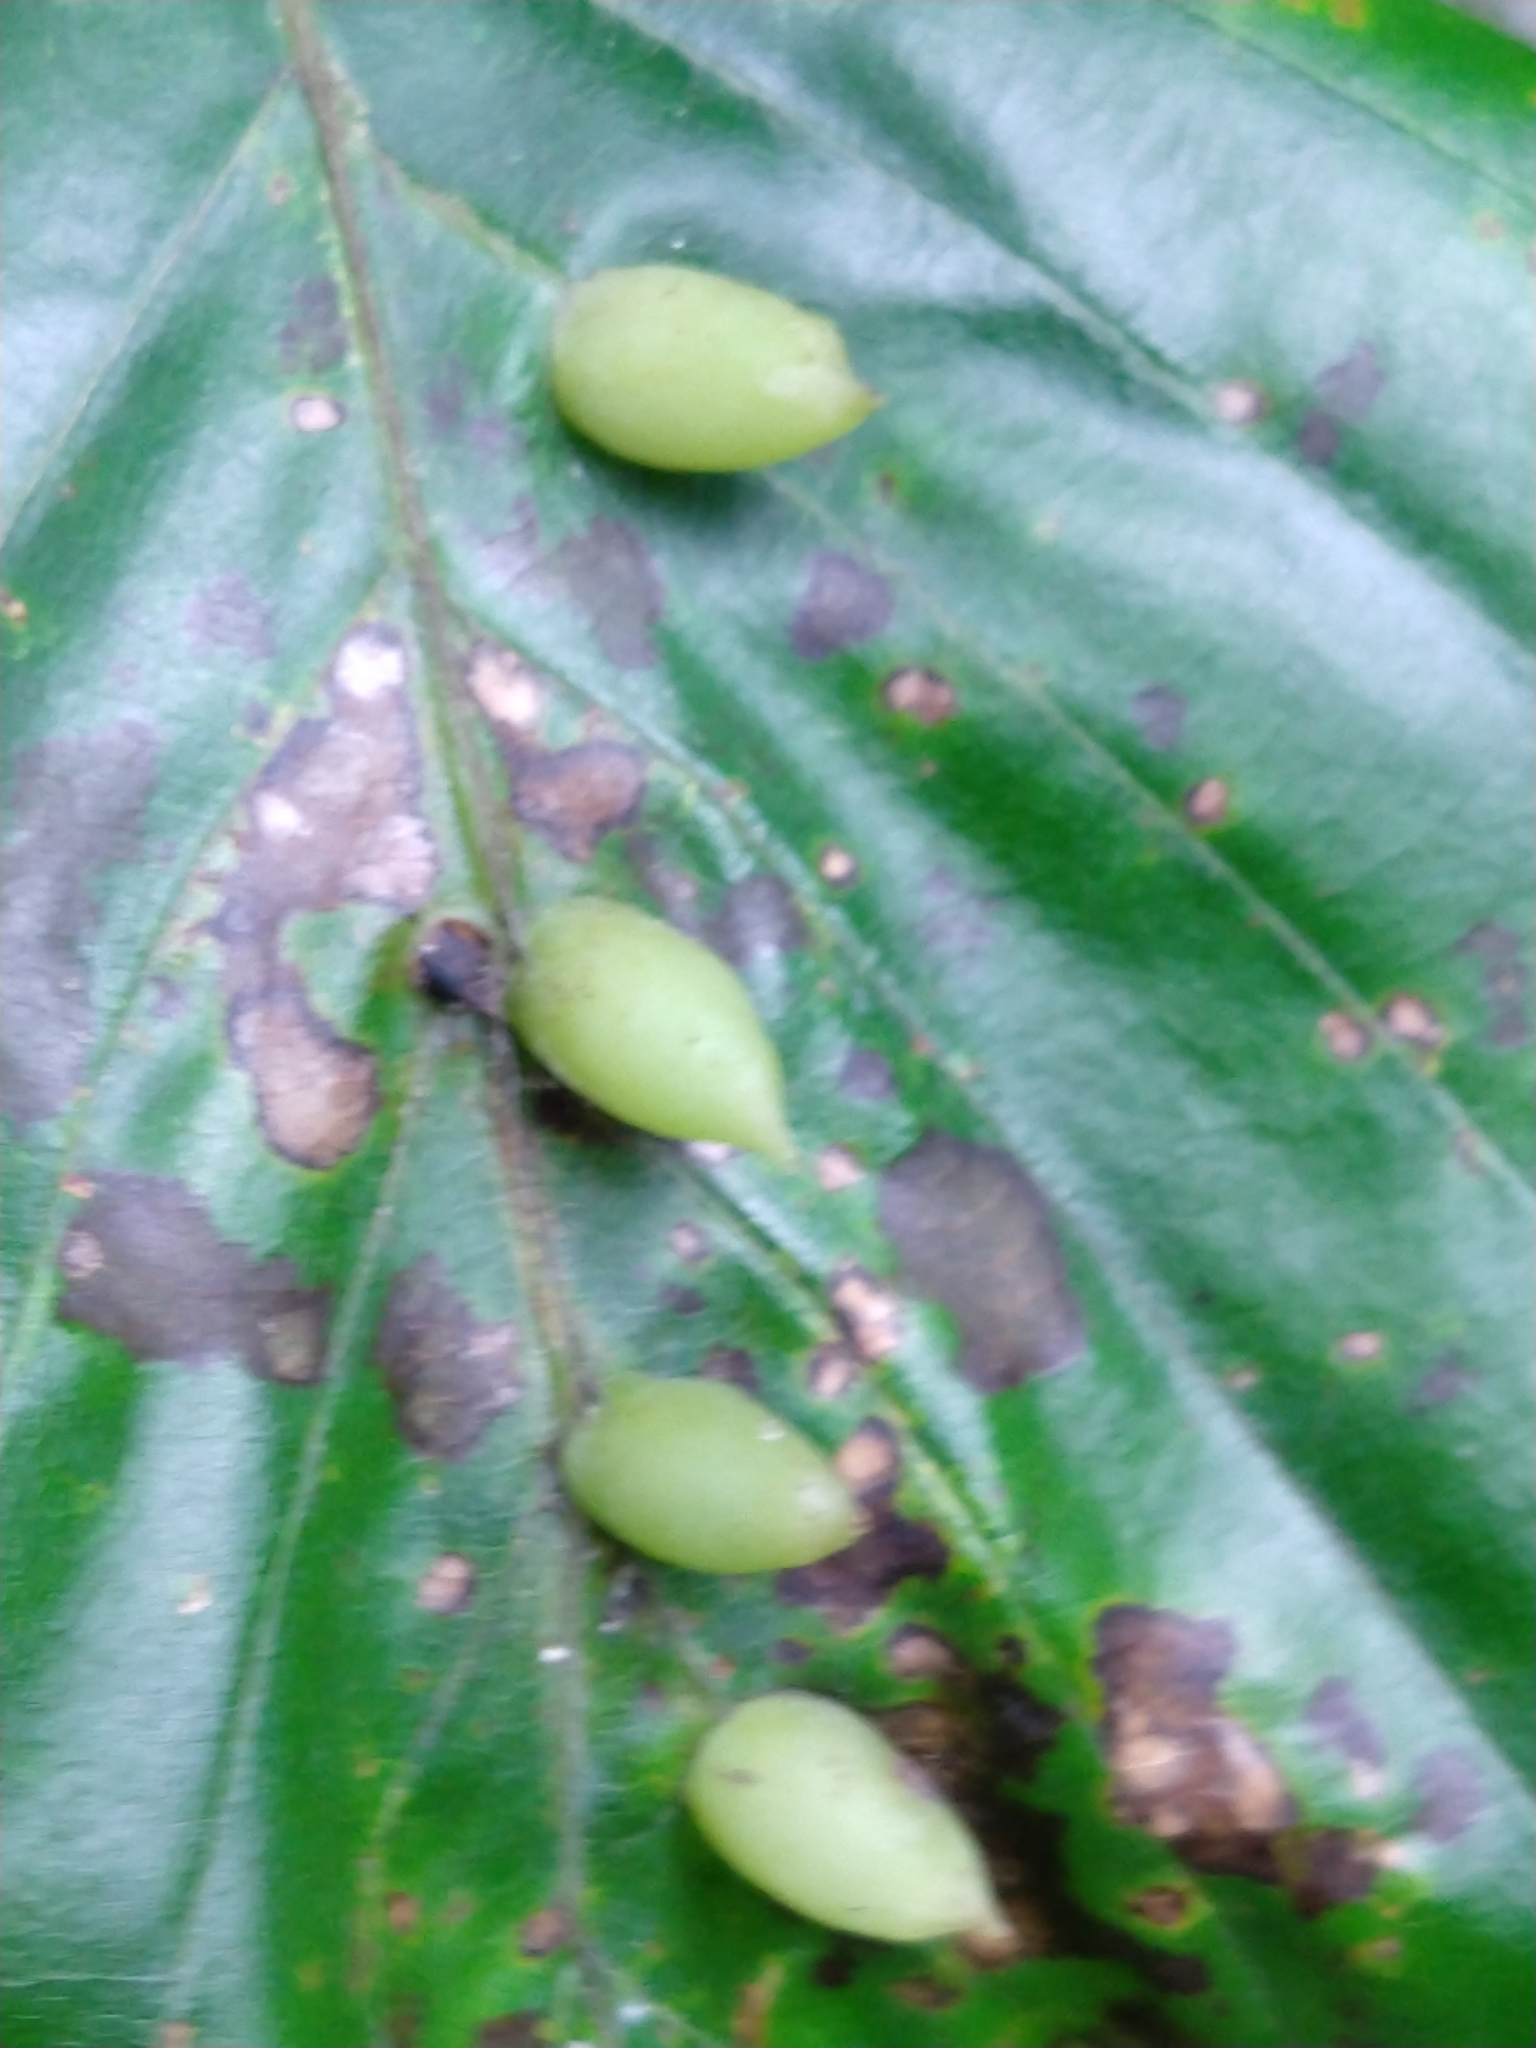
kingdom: Animalia
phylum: Arthropoda
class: Insecta
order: Diptera
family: Cecidomyiidae
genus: Mikiola
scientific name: Mikiola fagi
